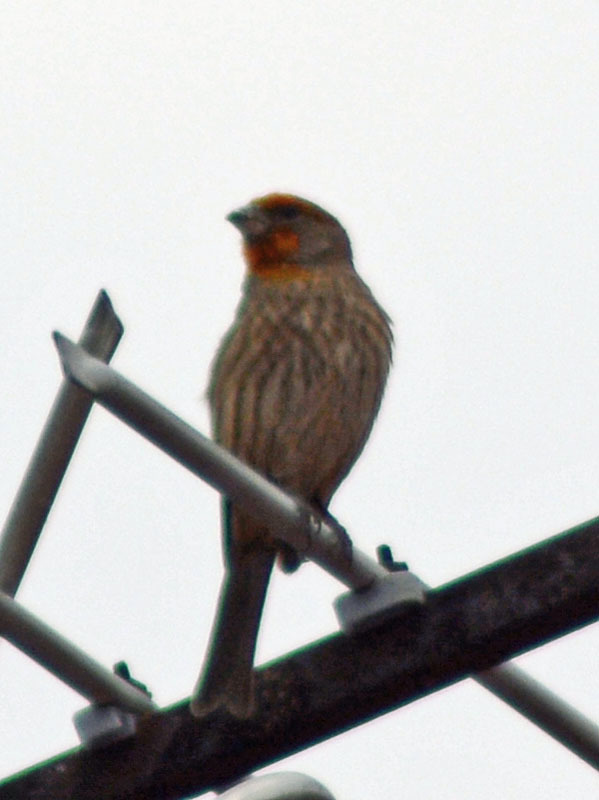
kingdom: Animalia
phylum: Chordata
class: Aves
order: Passeriformes
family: Fringillidae
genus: Haemorhous
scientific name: Haemorhous mexicanus
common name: House finch
